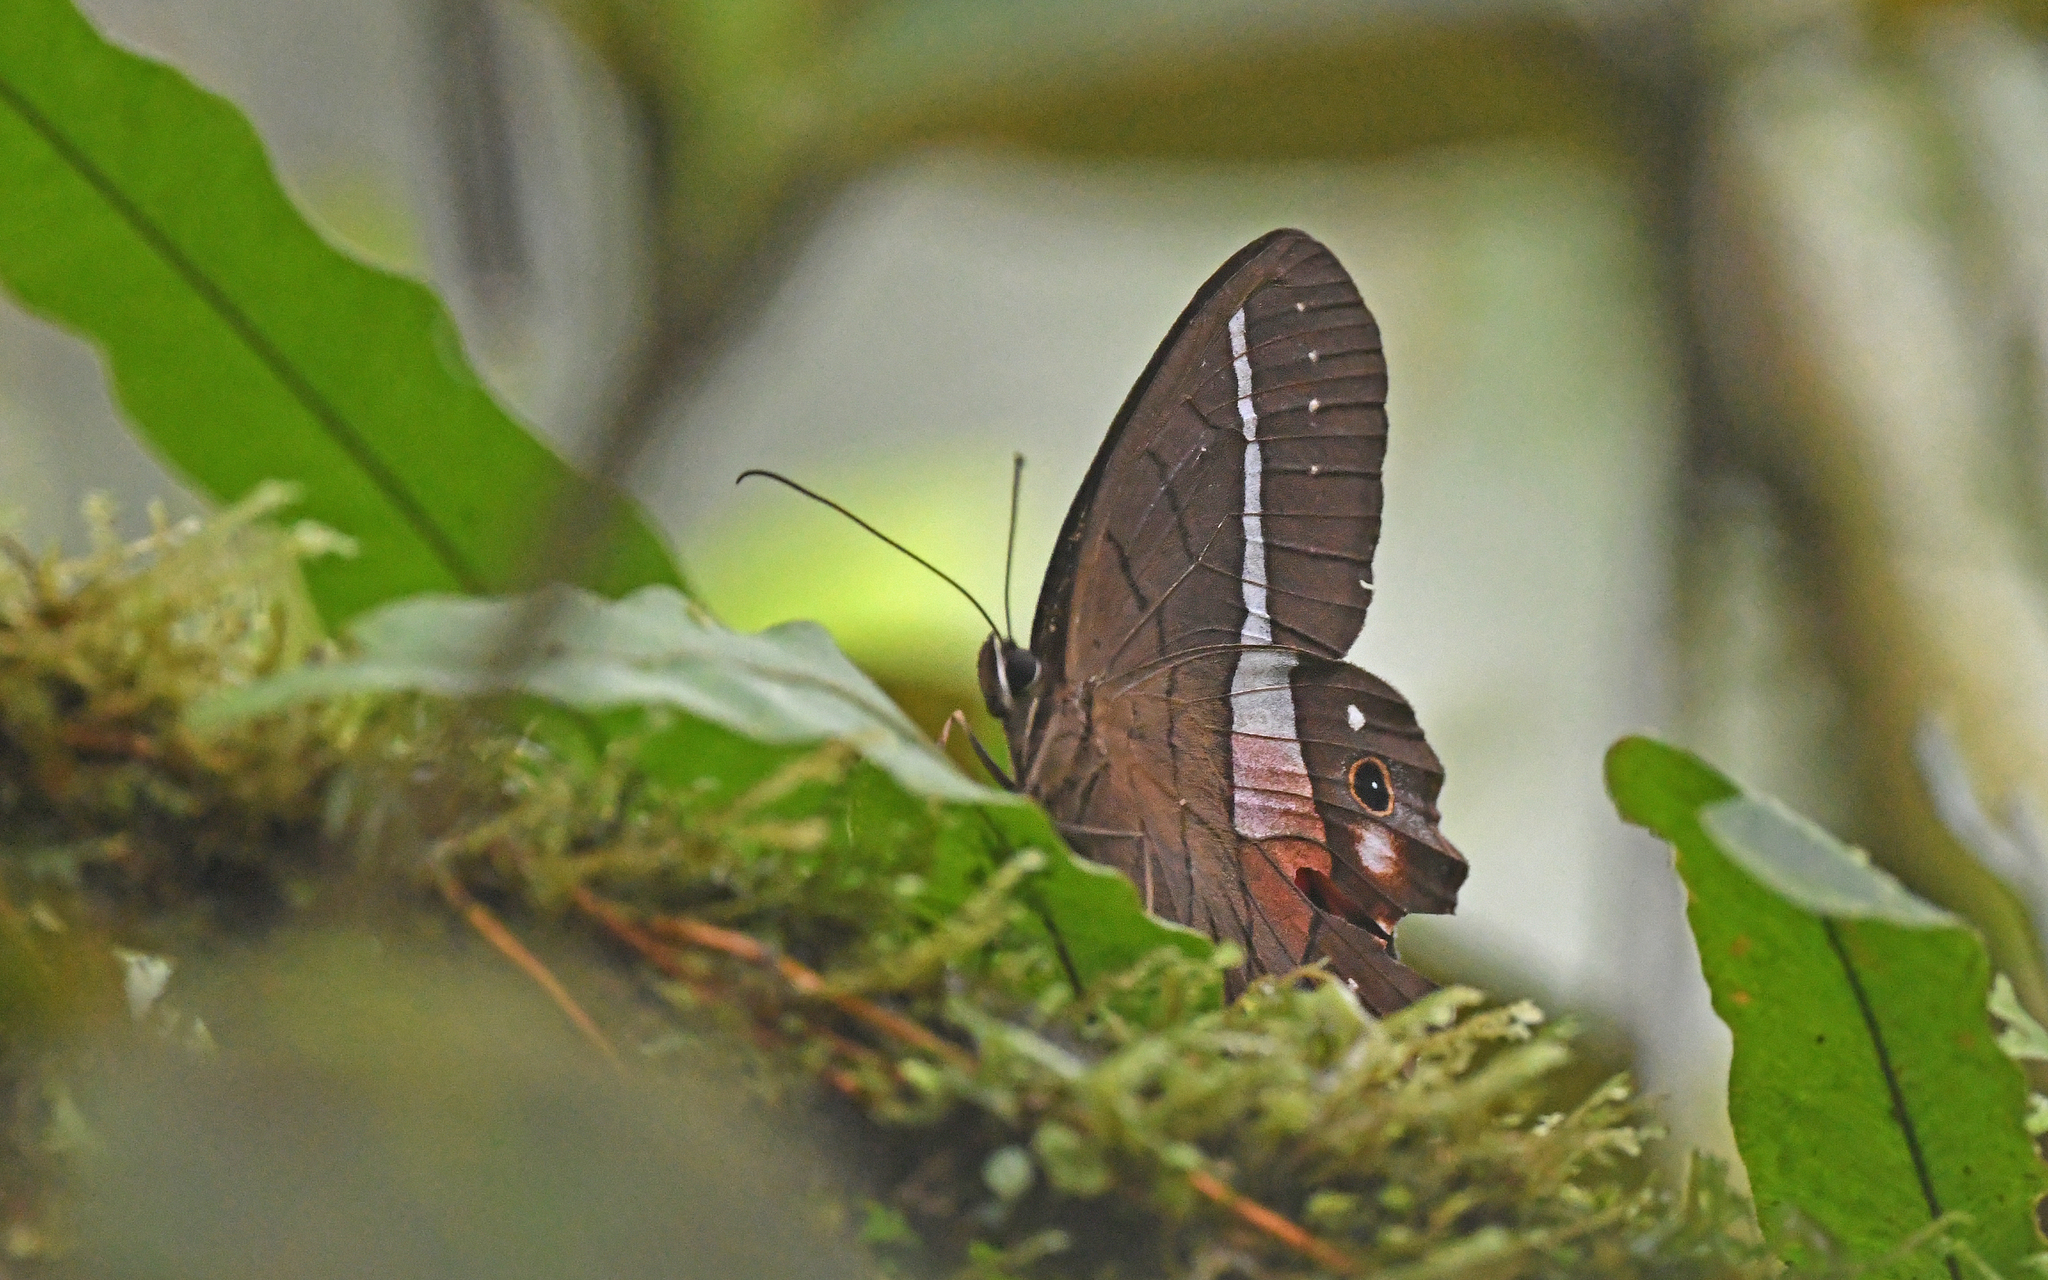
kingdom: Animalia
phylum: Arthropoda
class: Insecta
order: Lepidoptera
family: Nymphalidae
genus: Pierella
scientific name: Pierella helvina
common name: Red-washed satyr
